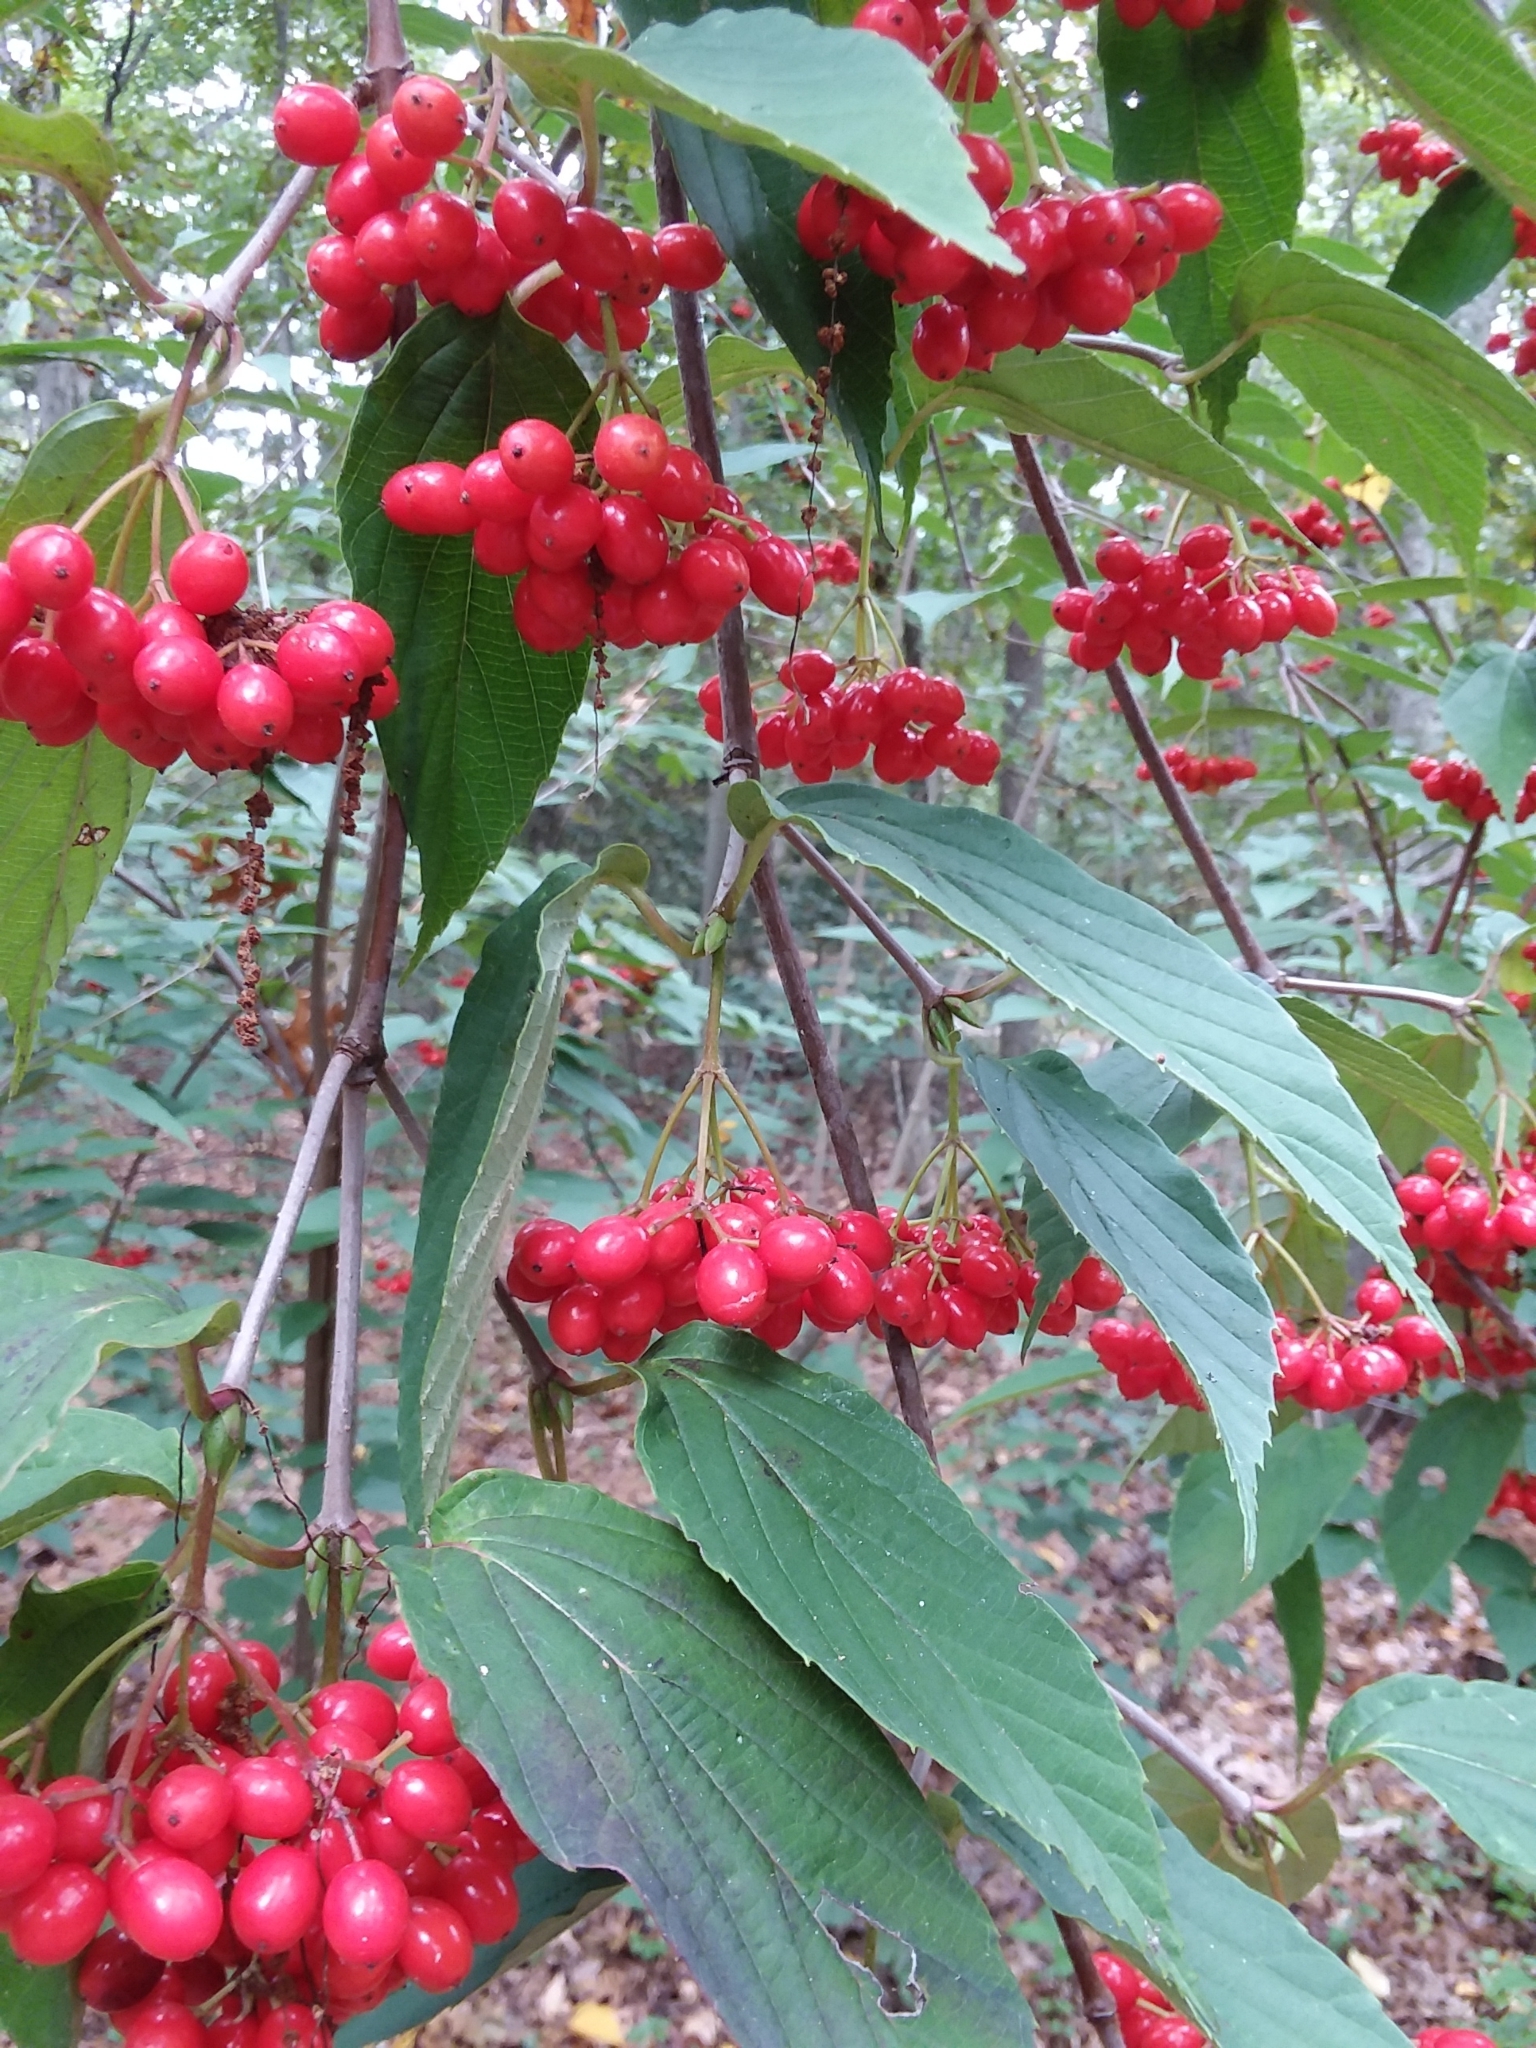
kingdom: Plantae
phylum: Tracheophyta
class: Magnoliopsida
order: Dipsacales
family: Viburnaceae
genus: Viburnum
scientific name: Viburnum setigerum
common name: Tea viburnum
